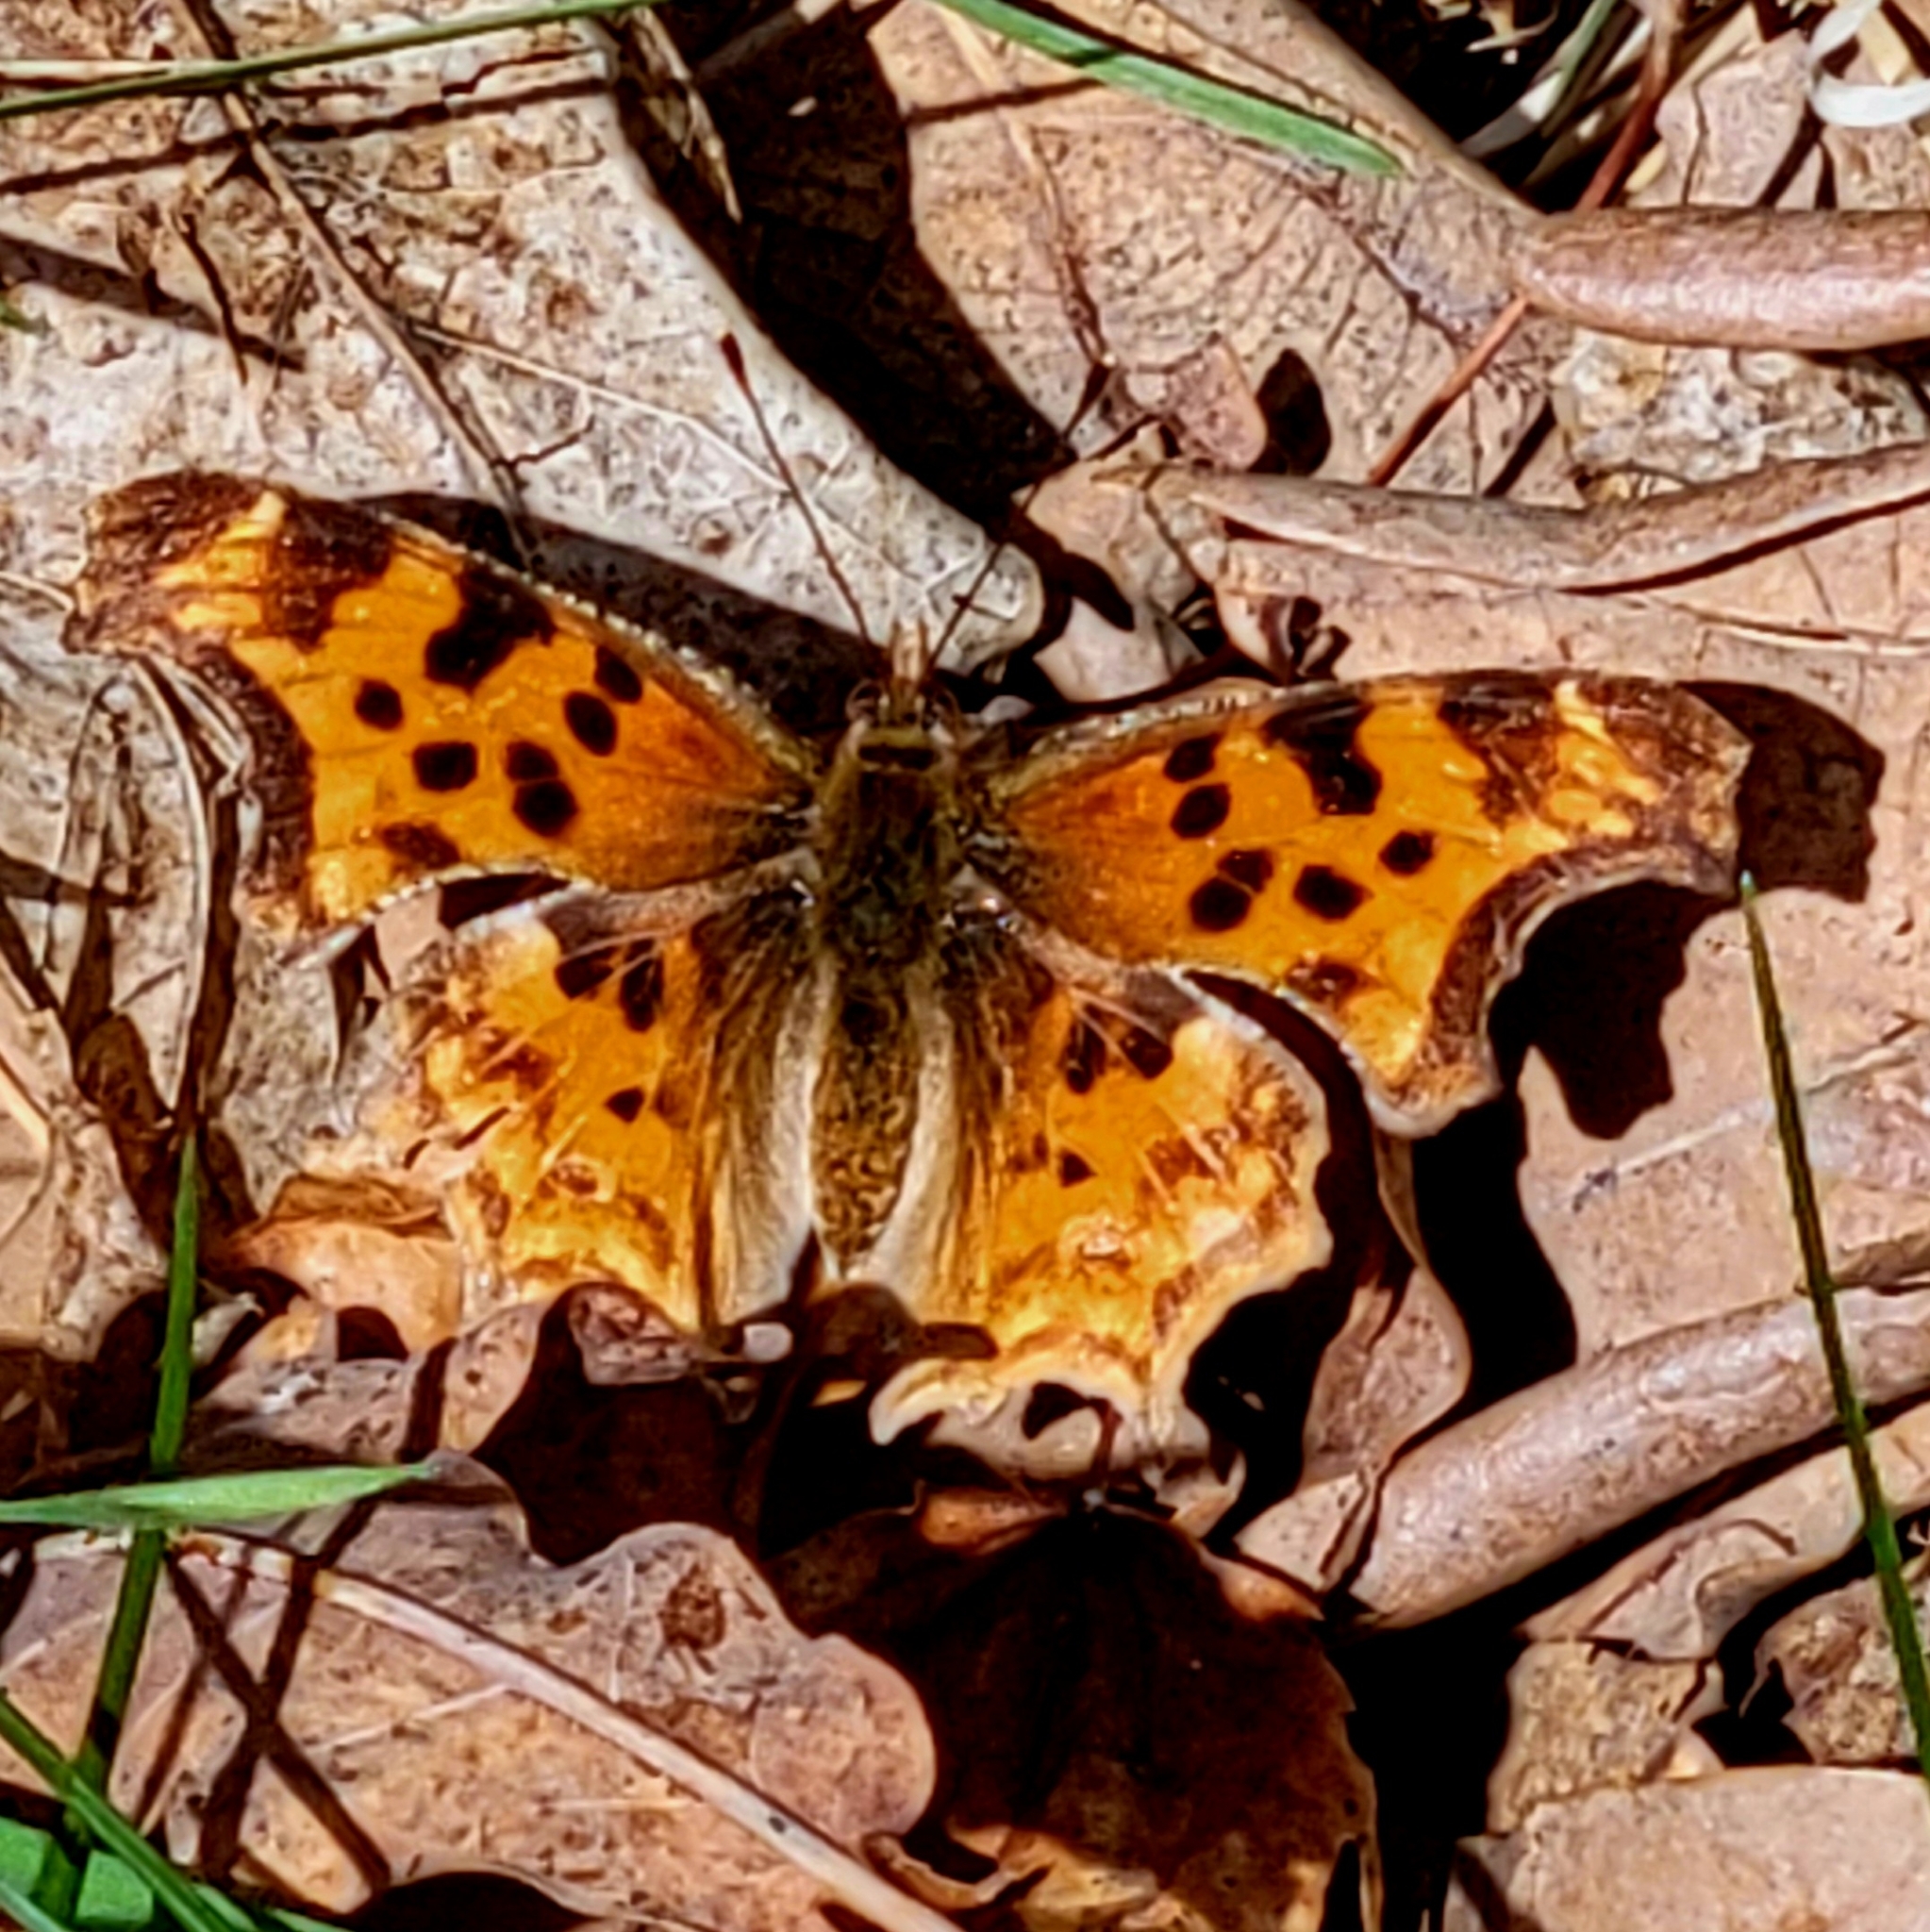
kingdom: Animalia
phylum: Arthropoda
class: Insecta
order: Lepidoptera
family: Nymphalidae
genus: Polygonia
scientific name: Polygonia satyrus
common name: Satyr angle wing
